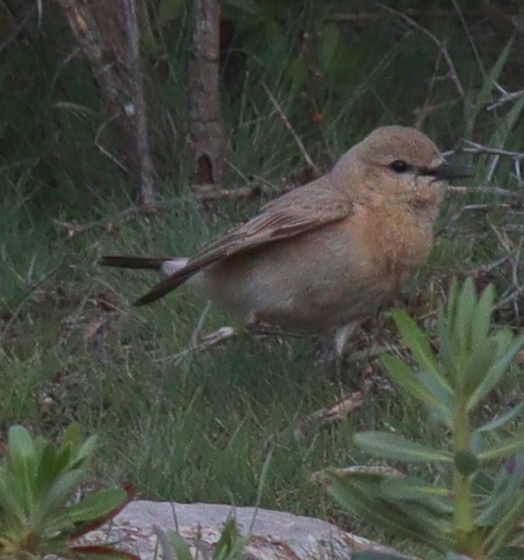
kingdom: Animalia
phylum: Chordata
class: Aves
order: Passeriformes
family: Muscicapidae
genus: Oenanthe
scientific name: Oenanthe isabellina
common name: Isabelline wheatear
